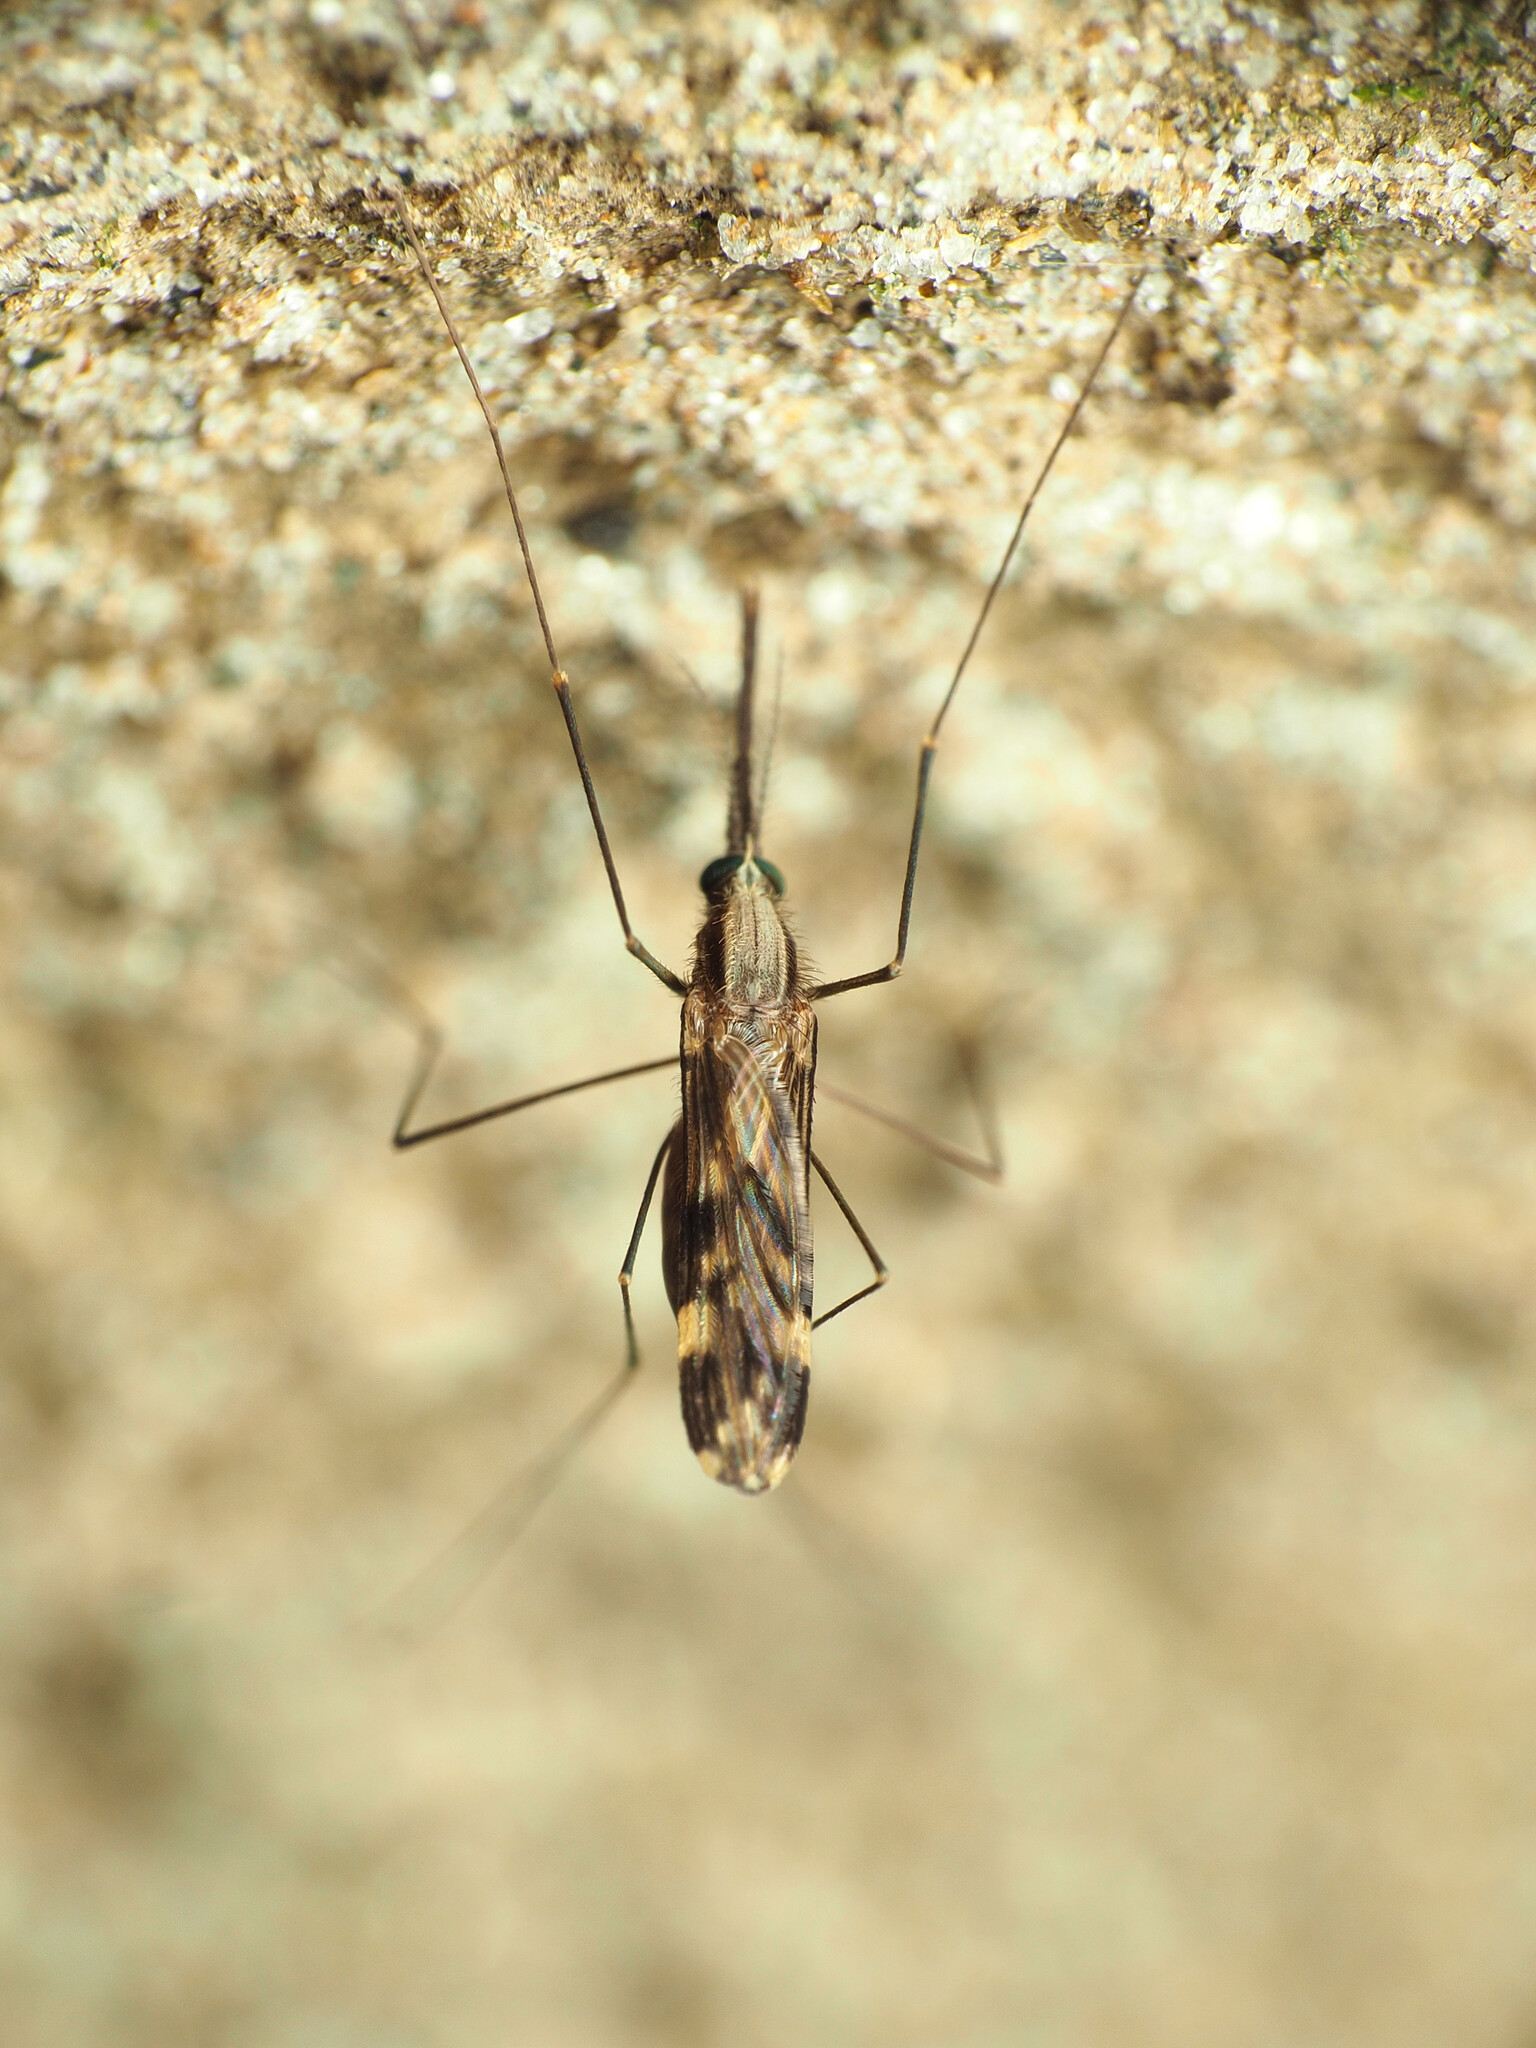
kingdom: Animalia
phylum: Arthropoda
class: Insecta
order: Diptera
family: Culicidae
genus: Anopheles
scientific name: Anopheles punctipennis
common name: Woodland malaria mosquito
